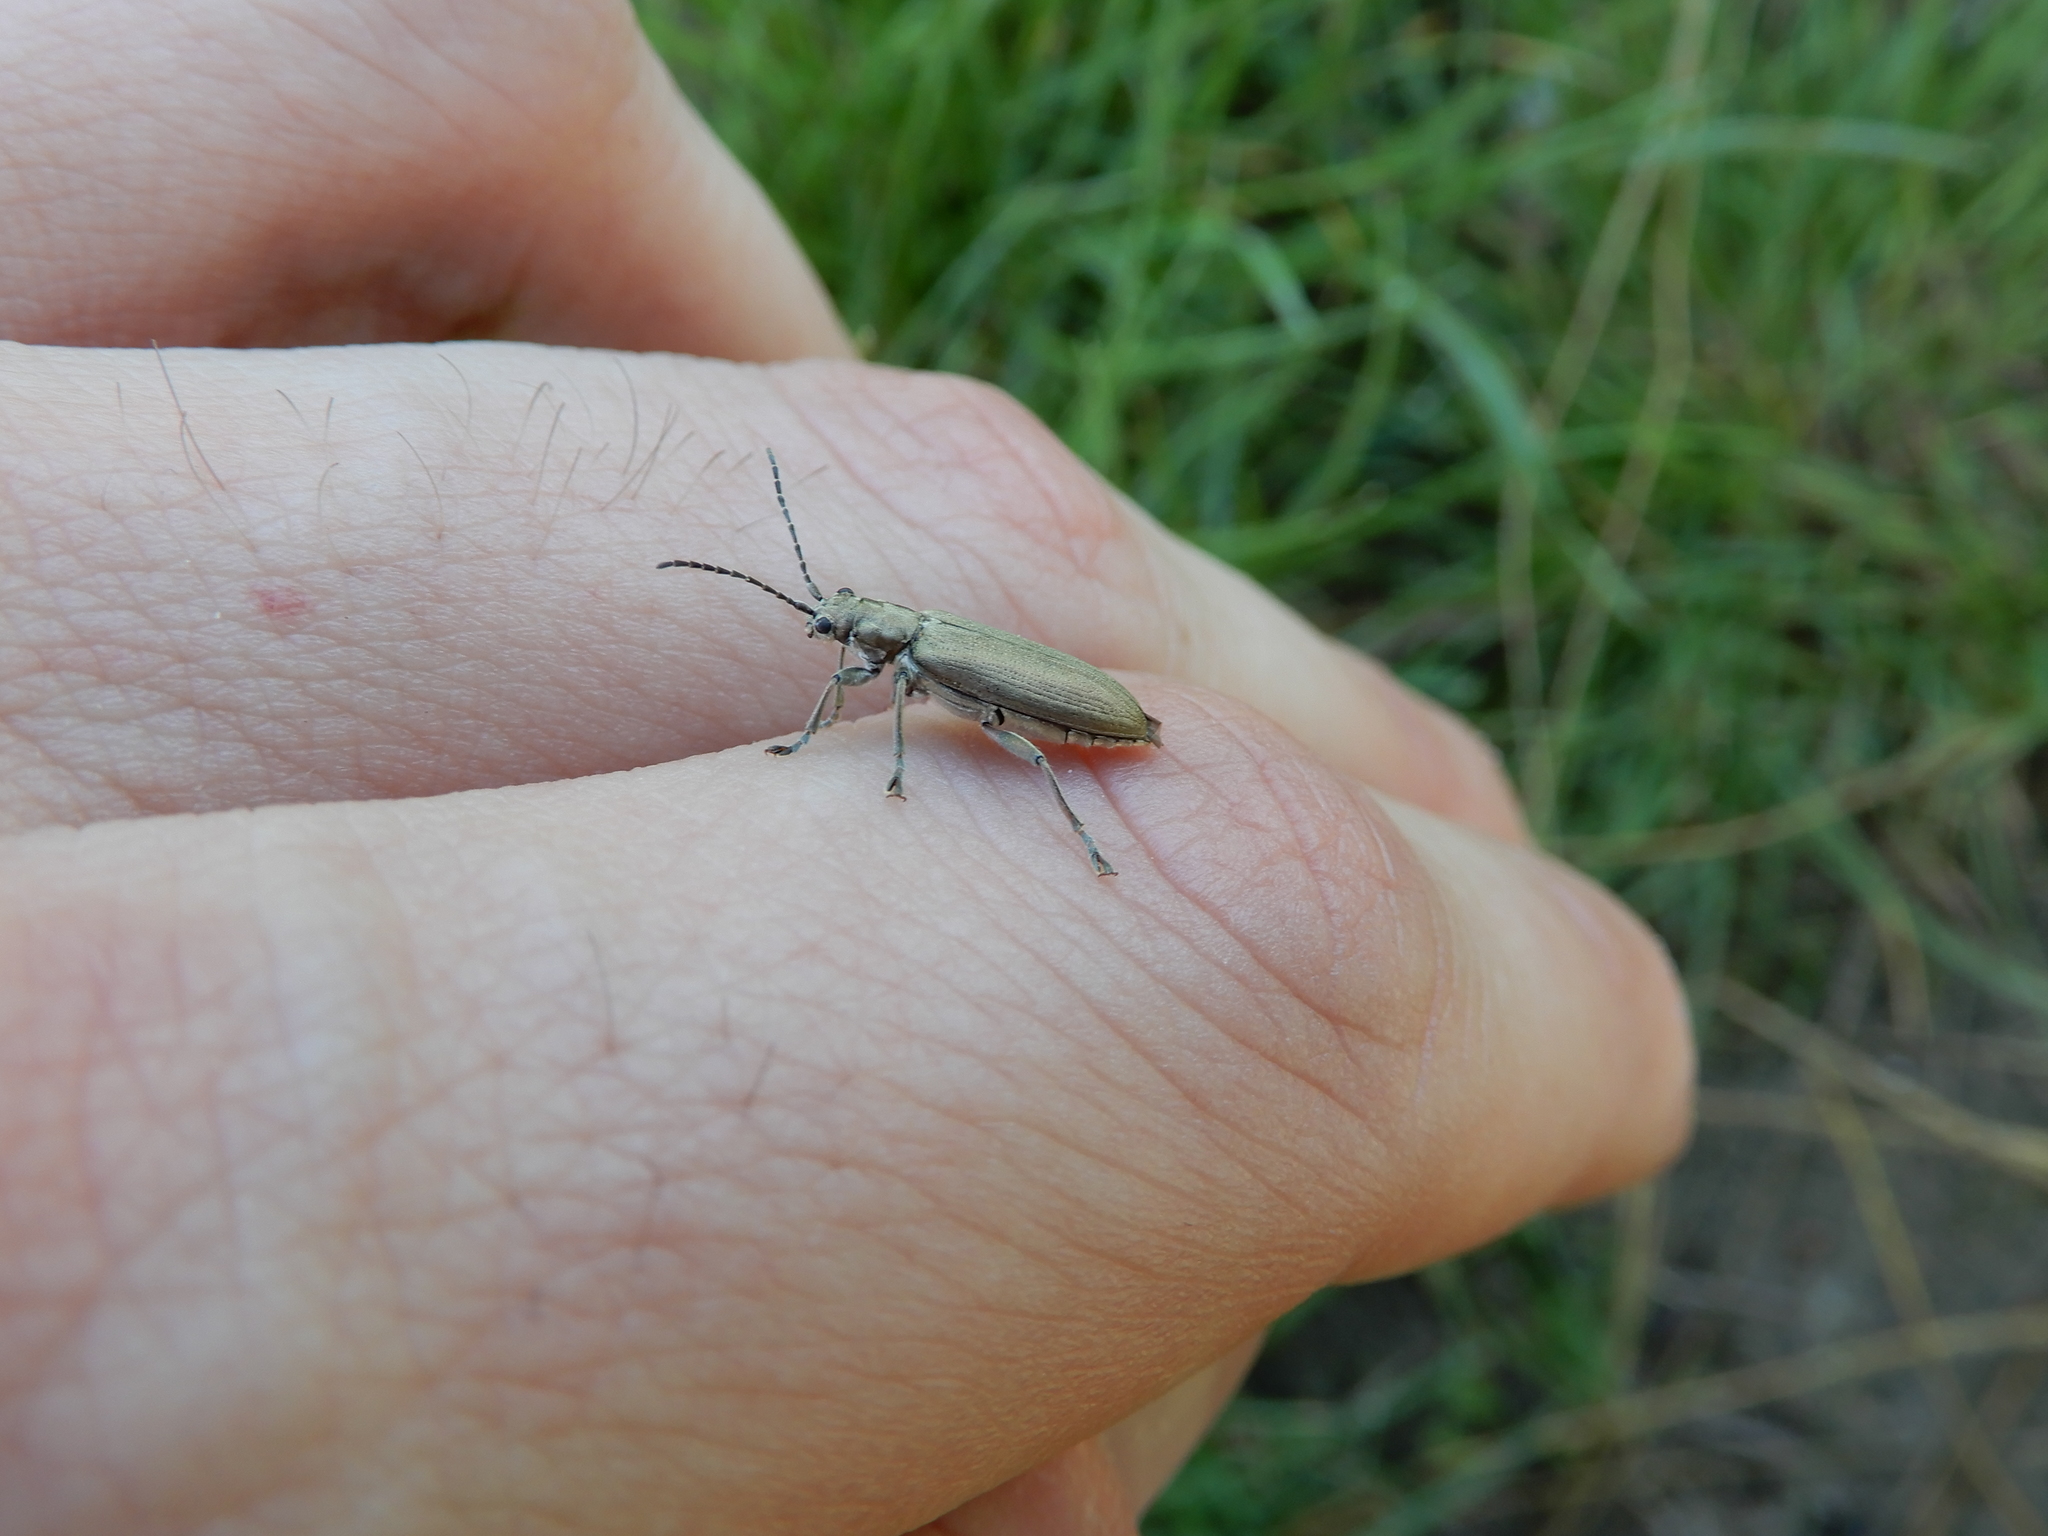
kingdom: Animalia
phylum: Arthropoda
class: Insecta
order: Coleoptera
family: Chrysomelidae
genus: Donacia
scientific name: Donacia cinerea
